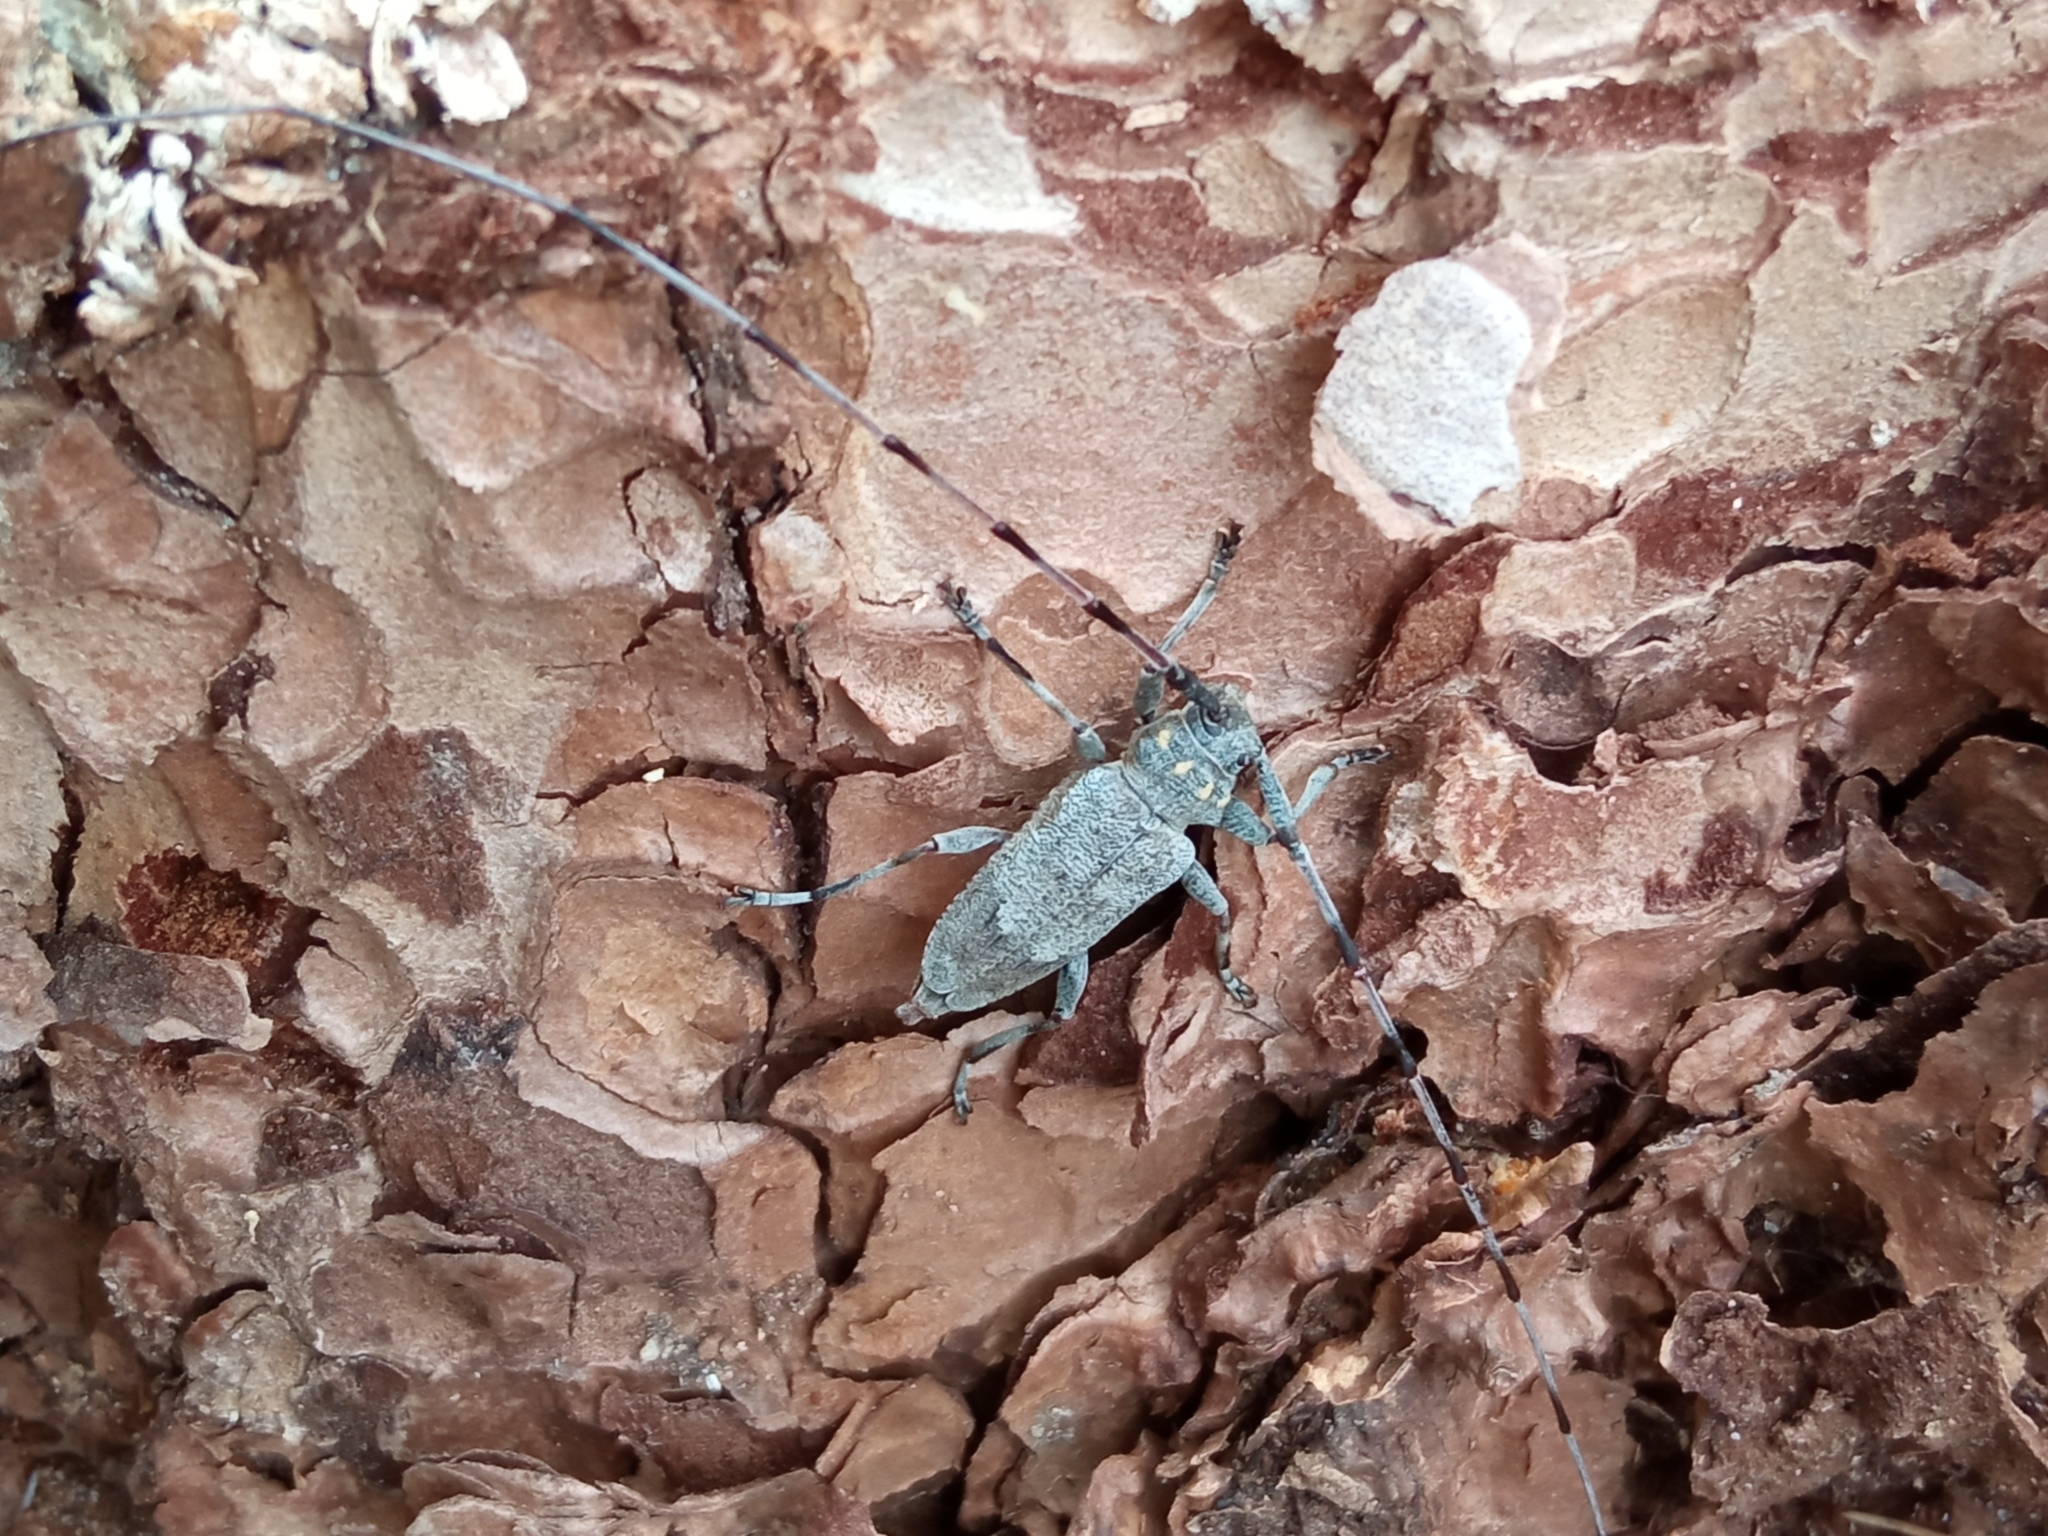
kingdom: Animalia
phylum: Arthropoda
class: Insecta
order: Coleoptera
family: Cerambycidae
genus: Acanthocinus
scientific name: Acanthocinus aedilis
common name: Timberman beetle
